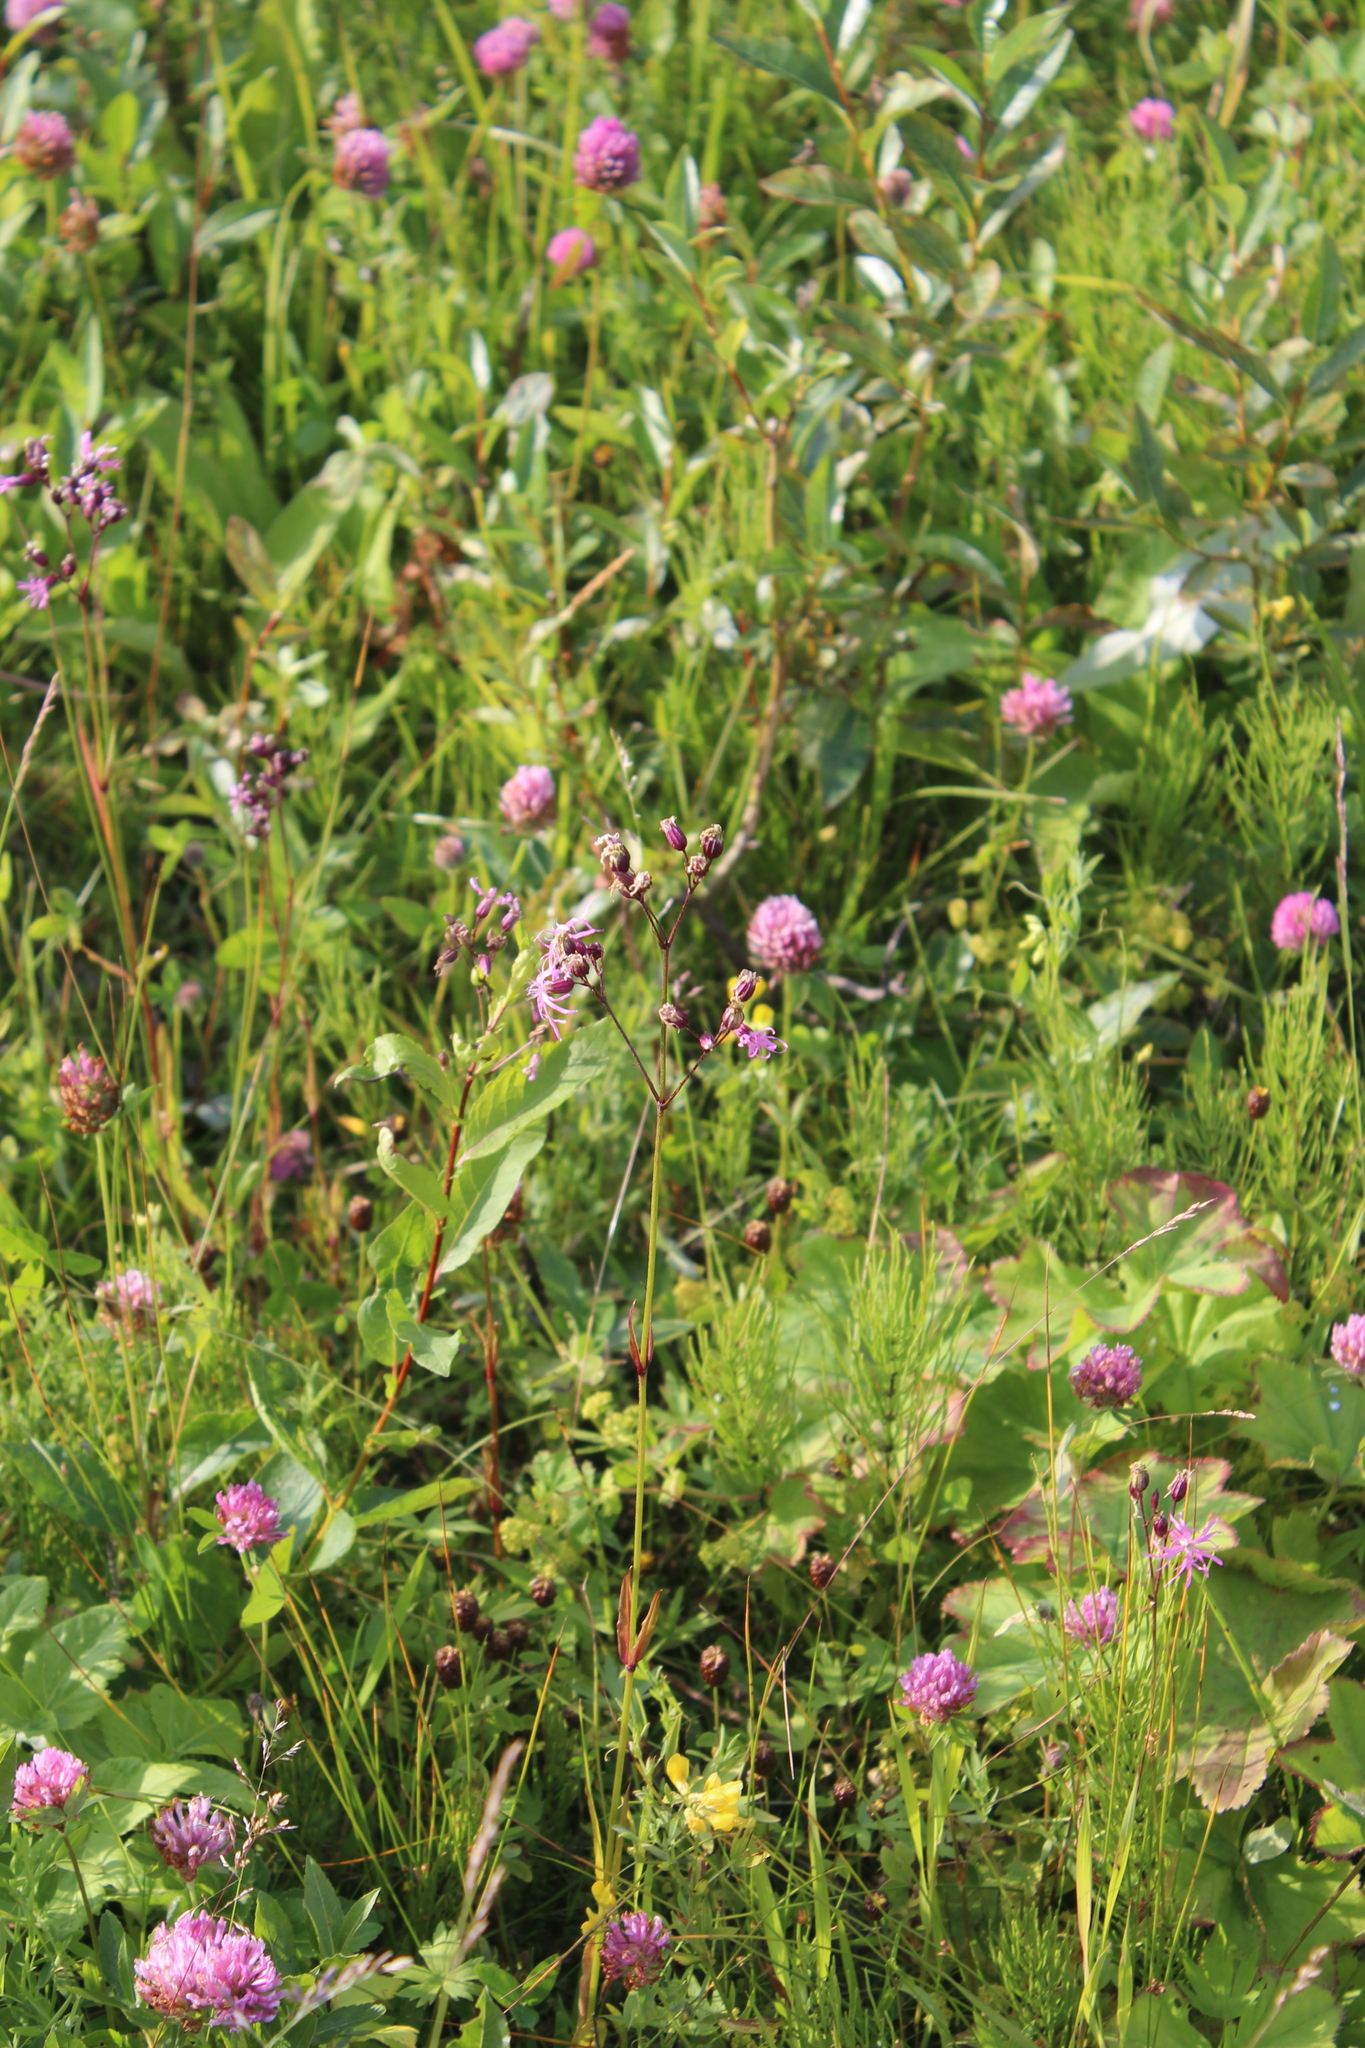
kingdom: Plantae
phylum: Tracheophyta
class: Magnoliopsida
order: Caryophyllales
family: Caryophyllaceae
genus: Silene
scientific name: Silene flos-cuculi
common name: Ragged-robin
